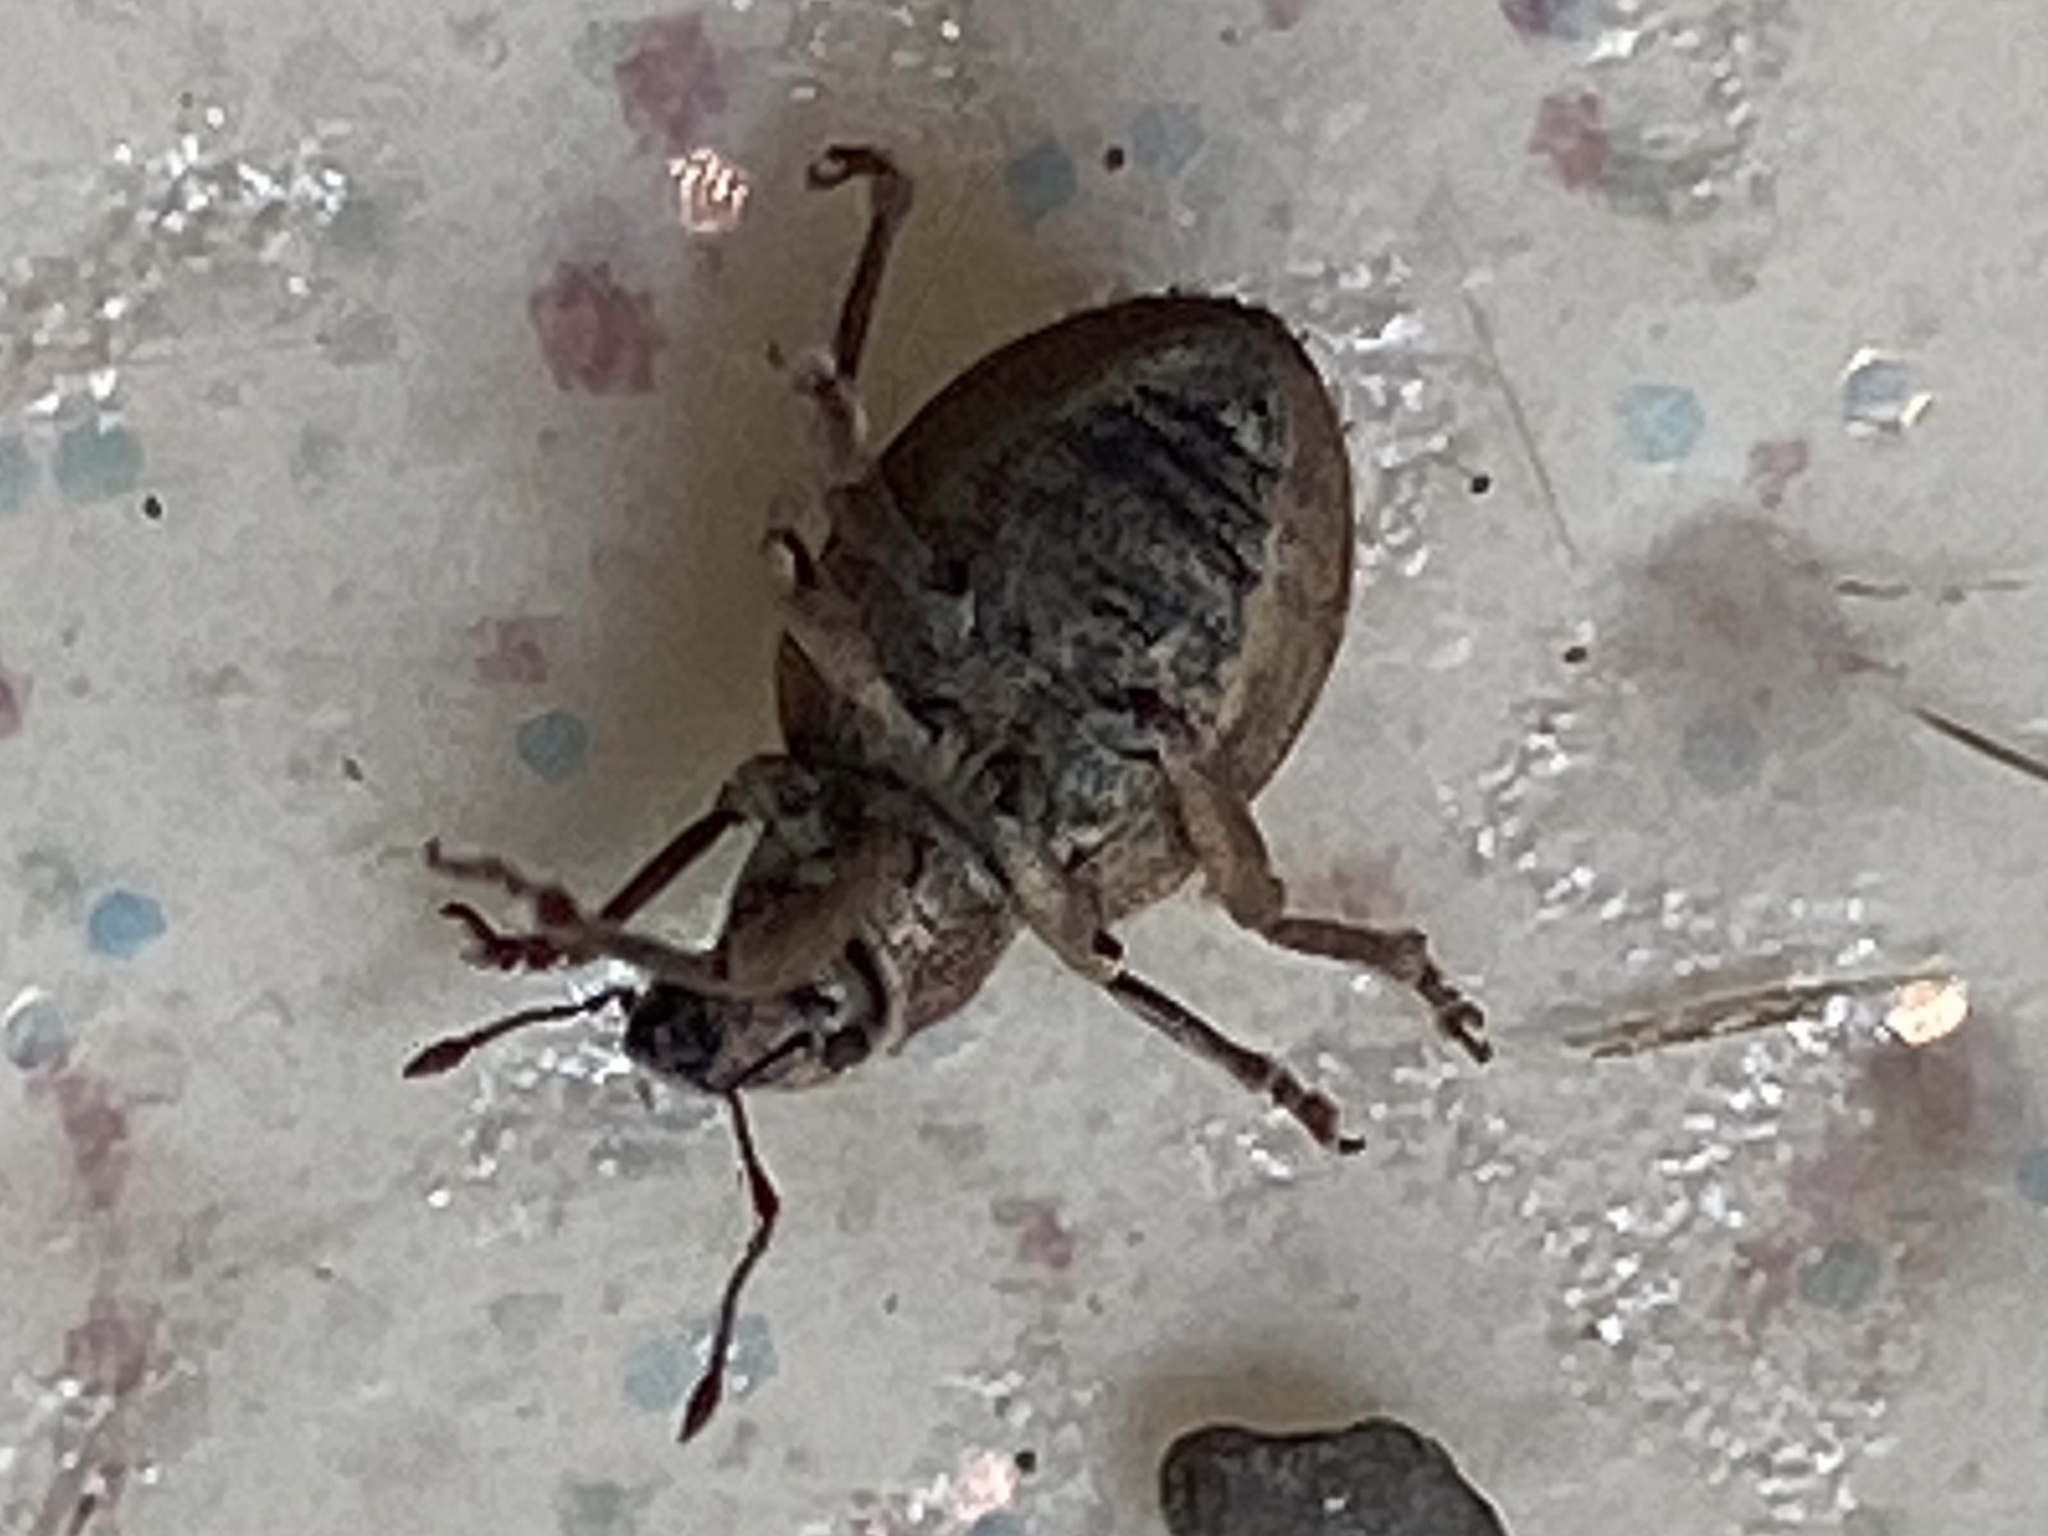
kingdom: Animalia
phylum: Arthropoda
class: Insecta
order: Coleoptera
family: Curculionidae
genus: Strophosoma
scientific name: Strophosoma melanogrammum
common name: Weevil
